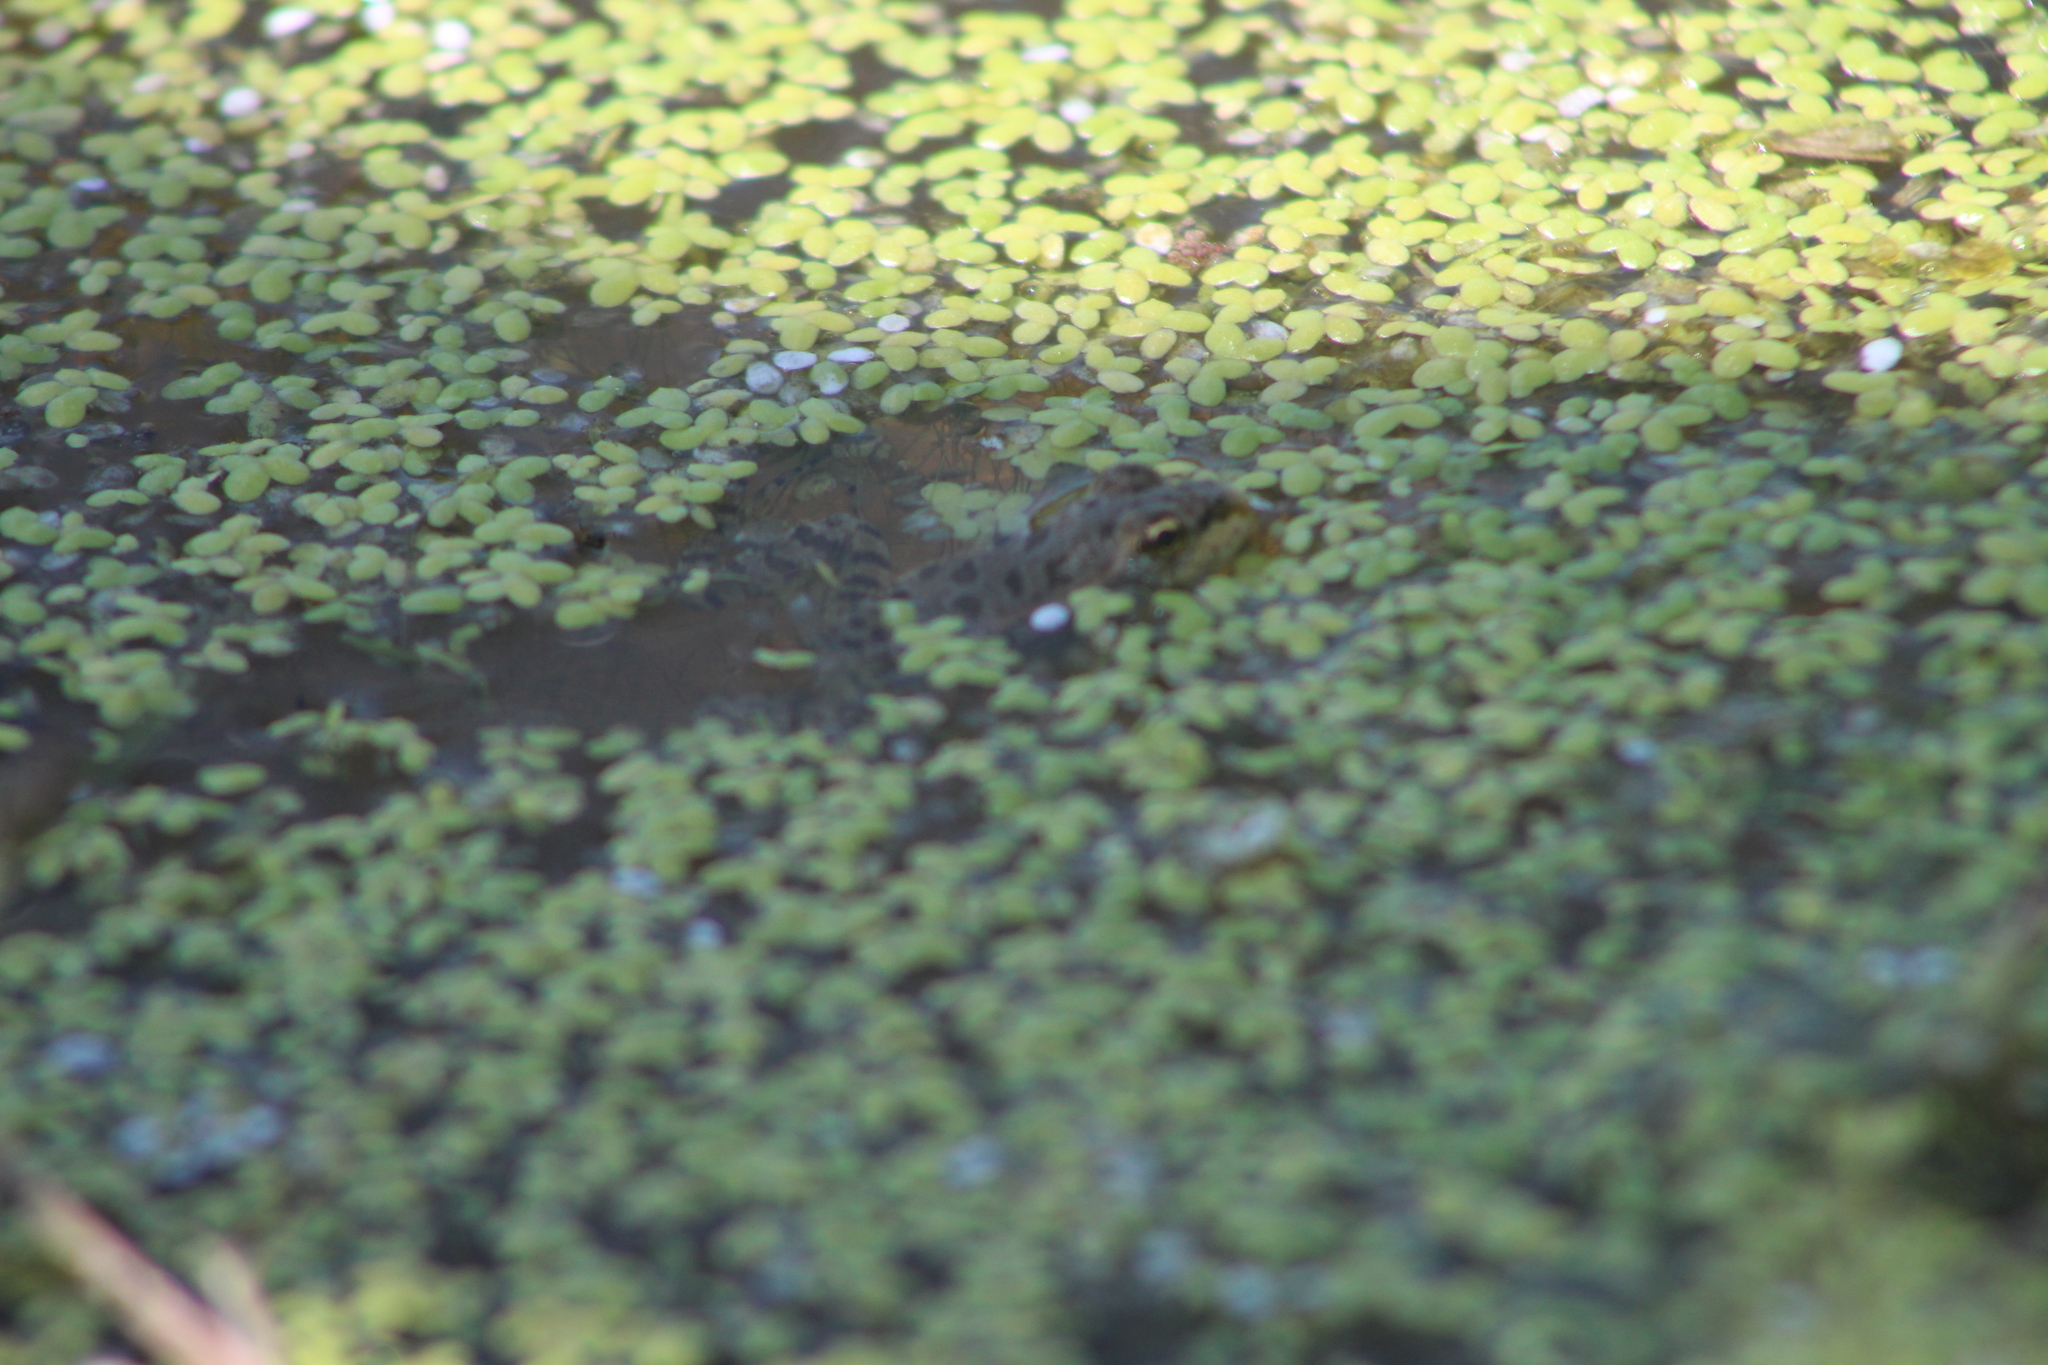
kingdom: Animalia
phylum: Chordata
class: Amphibia
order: Anura
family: Ranidae
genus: Pelophylax
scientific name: Pelophylax perezi
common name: Perez's frog
